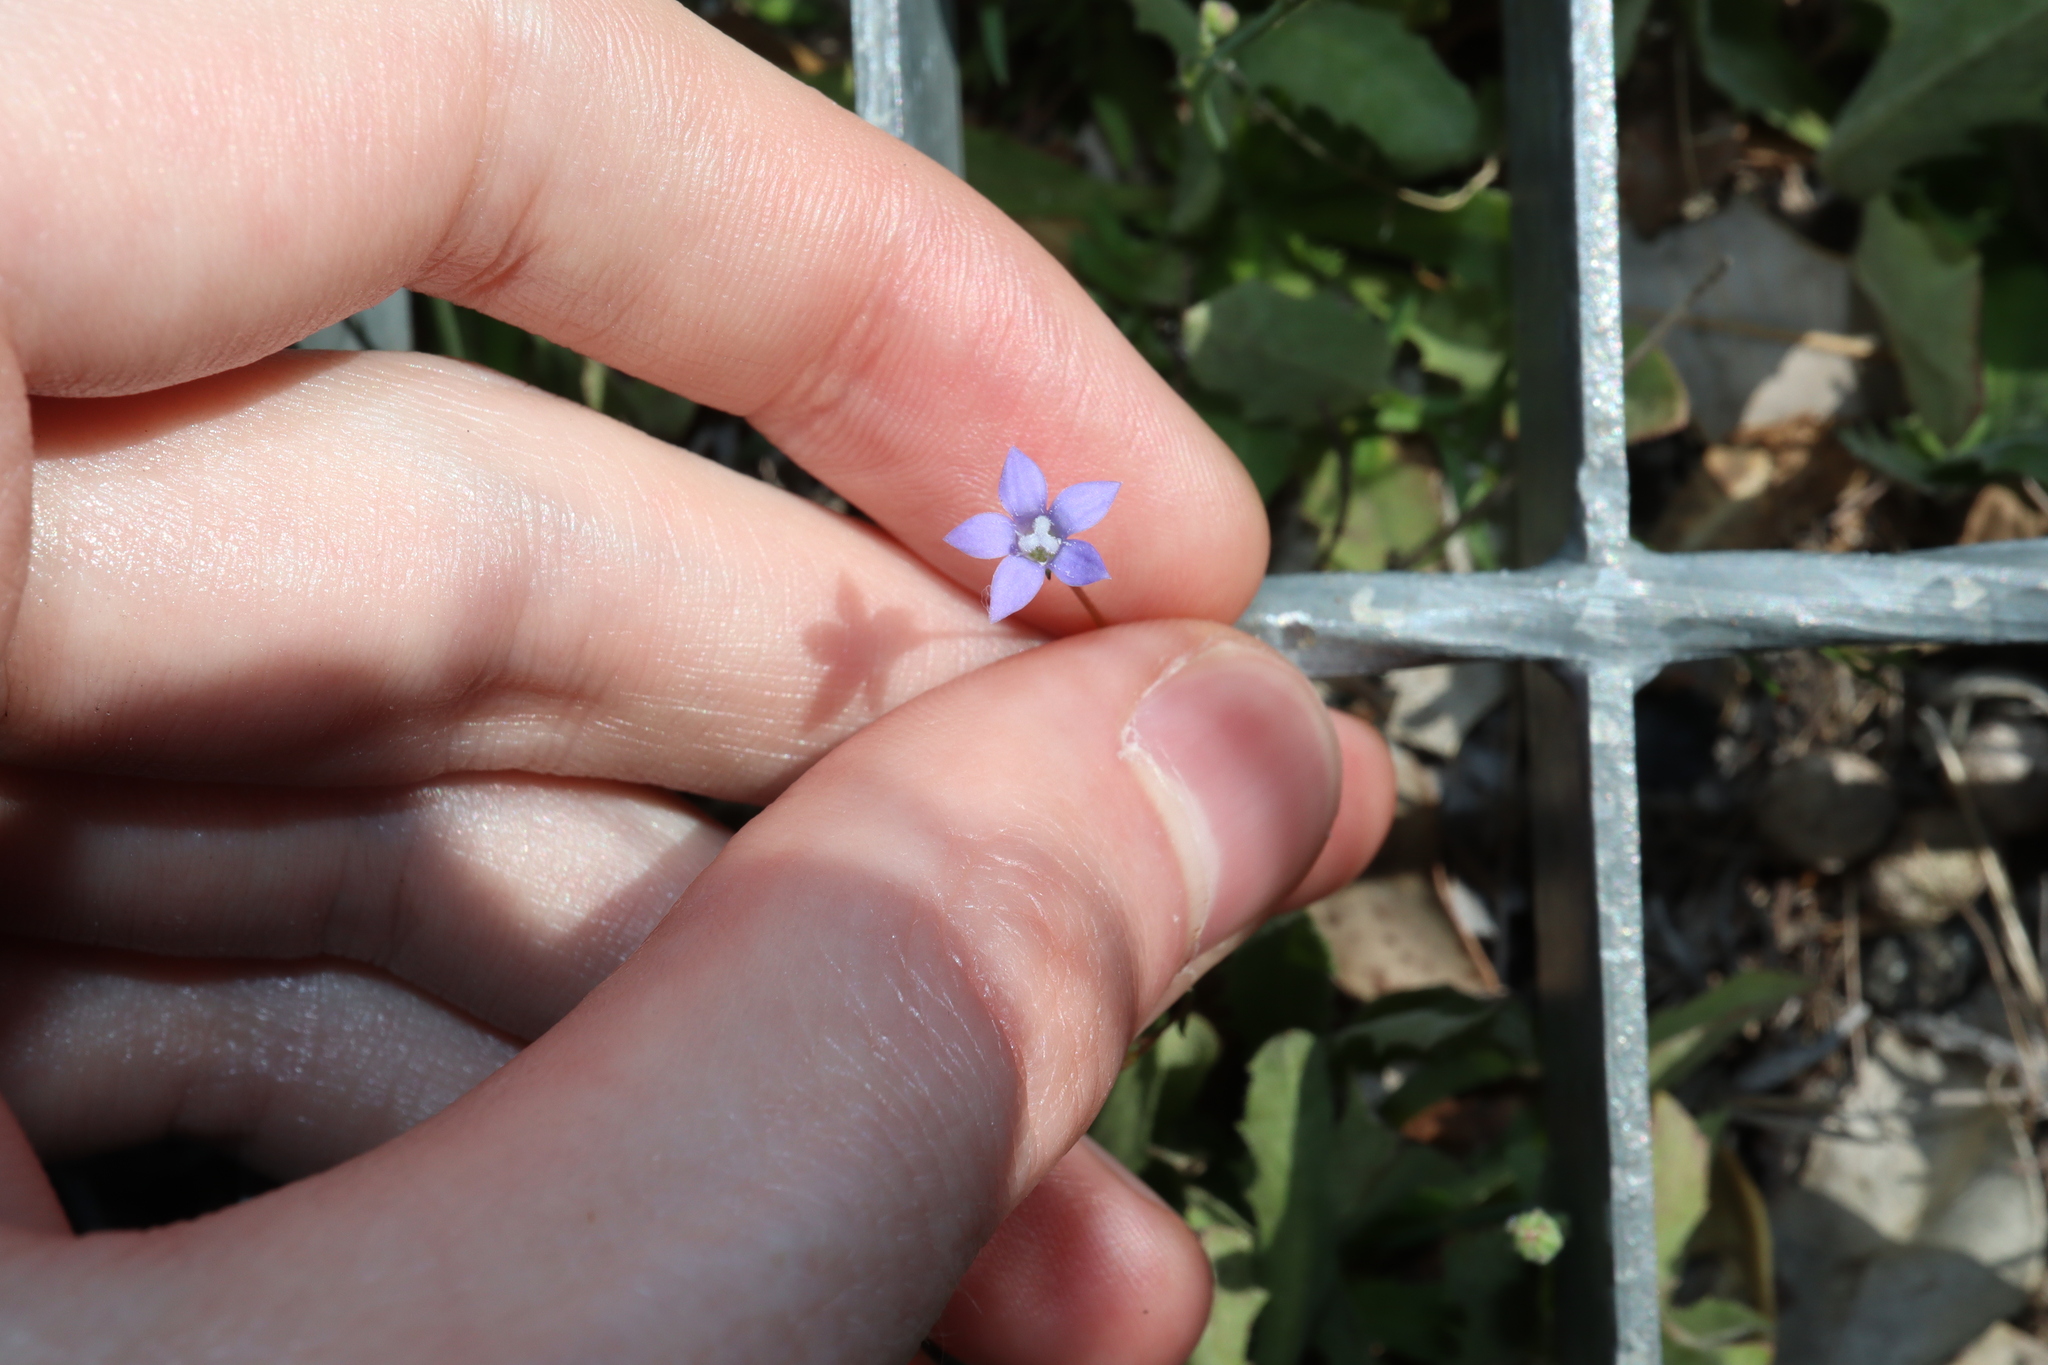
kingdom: Plantae
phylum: Tracheophyta
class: Magnoliopsida
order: Asterales
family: Campanulaceae
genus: Wahlenbergia
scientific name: Wahlenbergia gracilis
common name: Harebell
